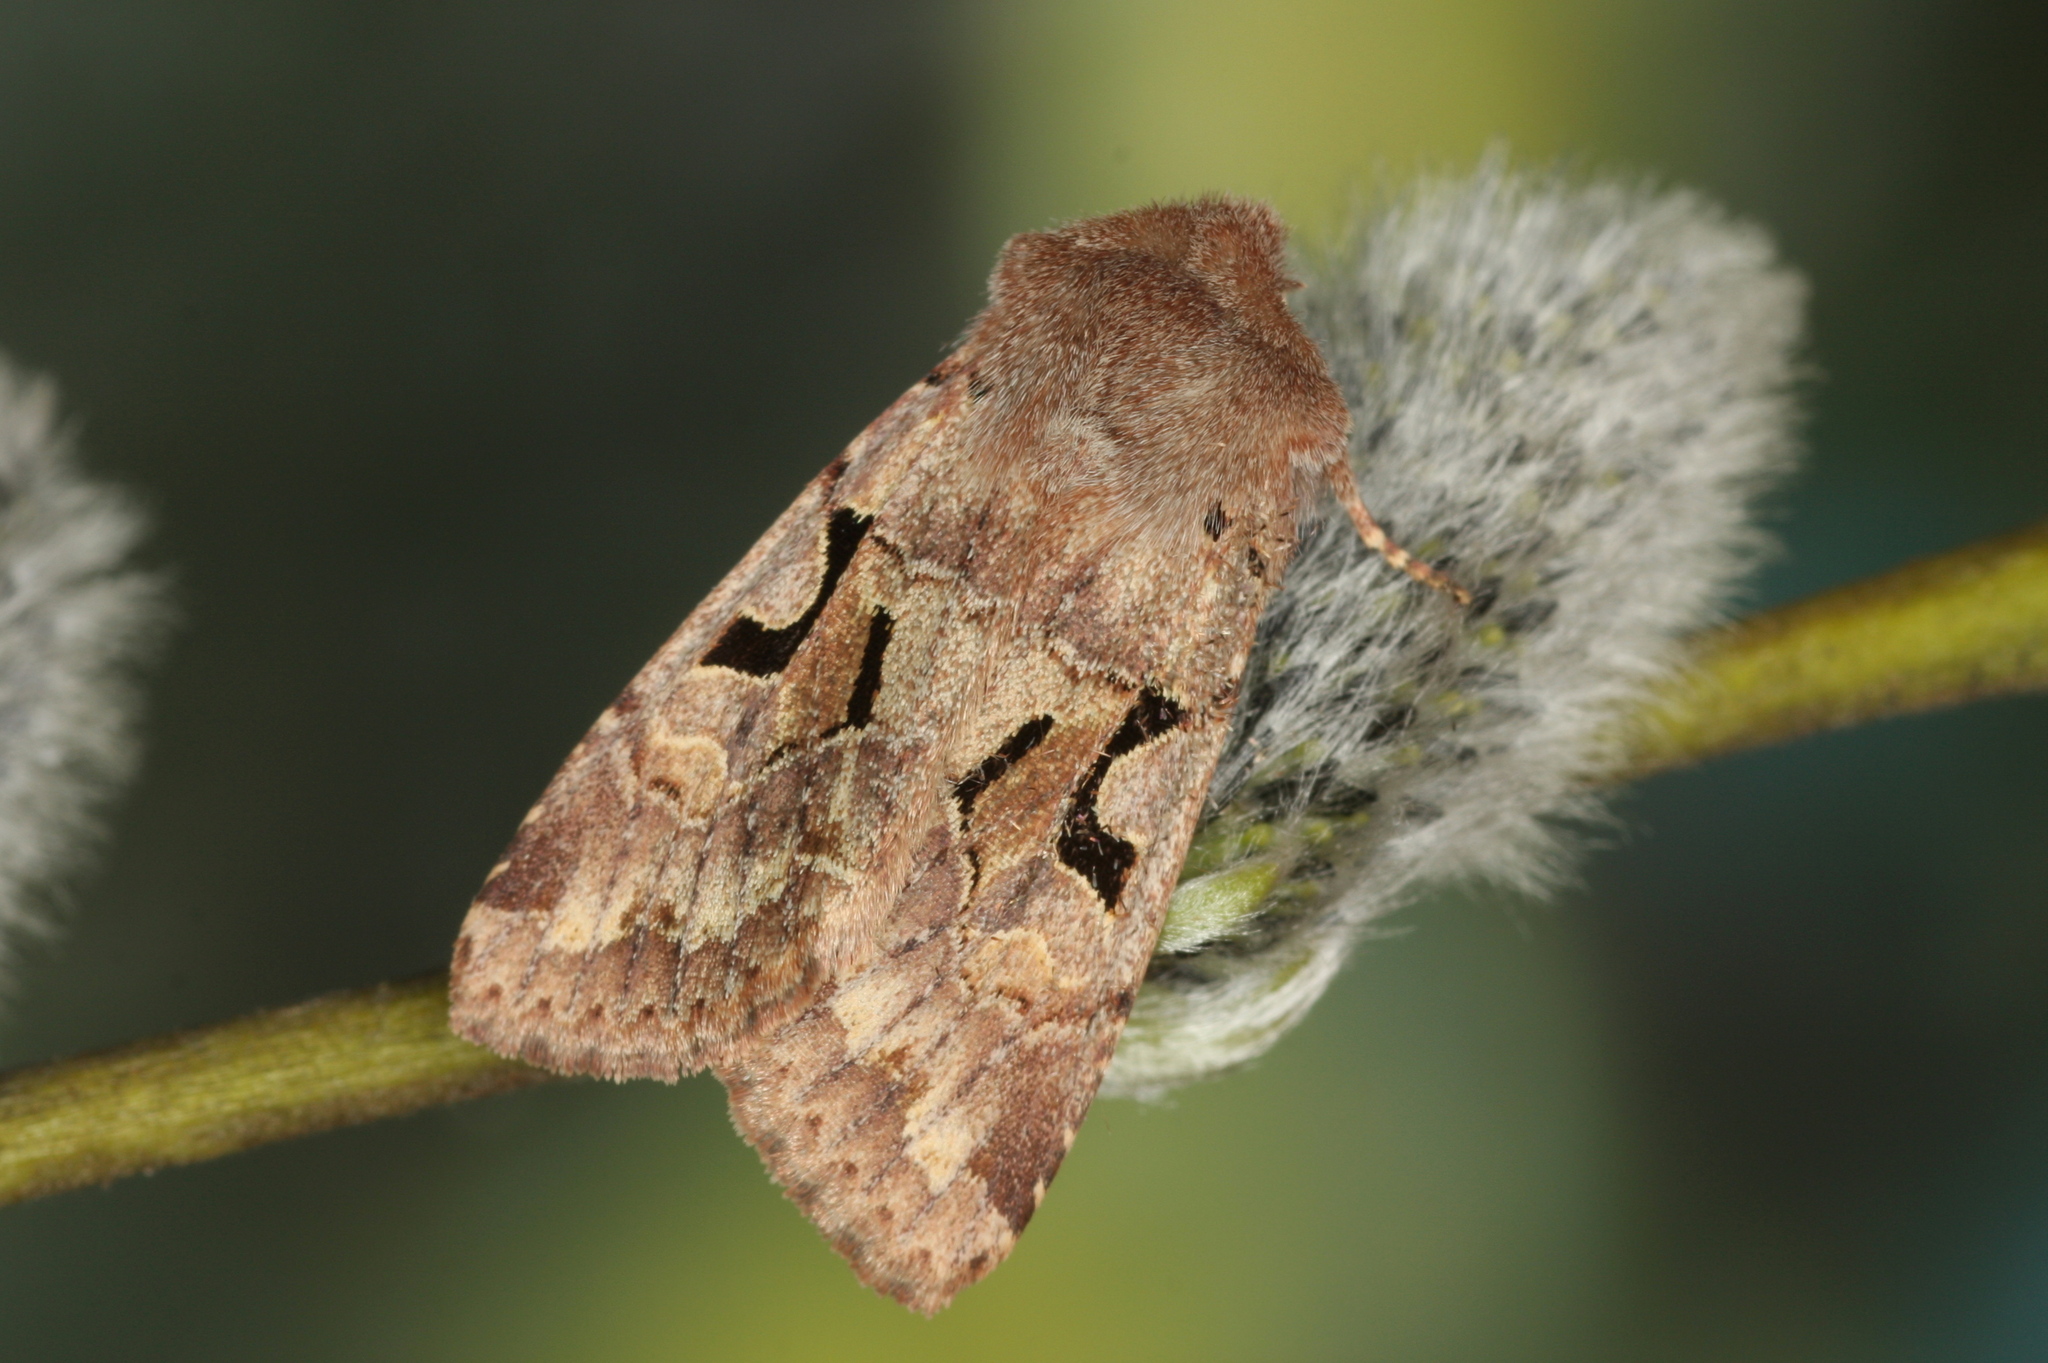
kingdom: Animalia
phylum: Arthropoda
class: Insecta
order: Lepidoptera
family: Noctuidae
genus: Orthosia
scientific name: Orthosia gothica
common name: Hebrew character
